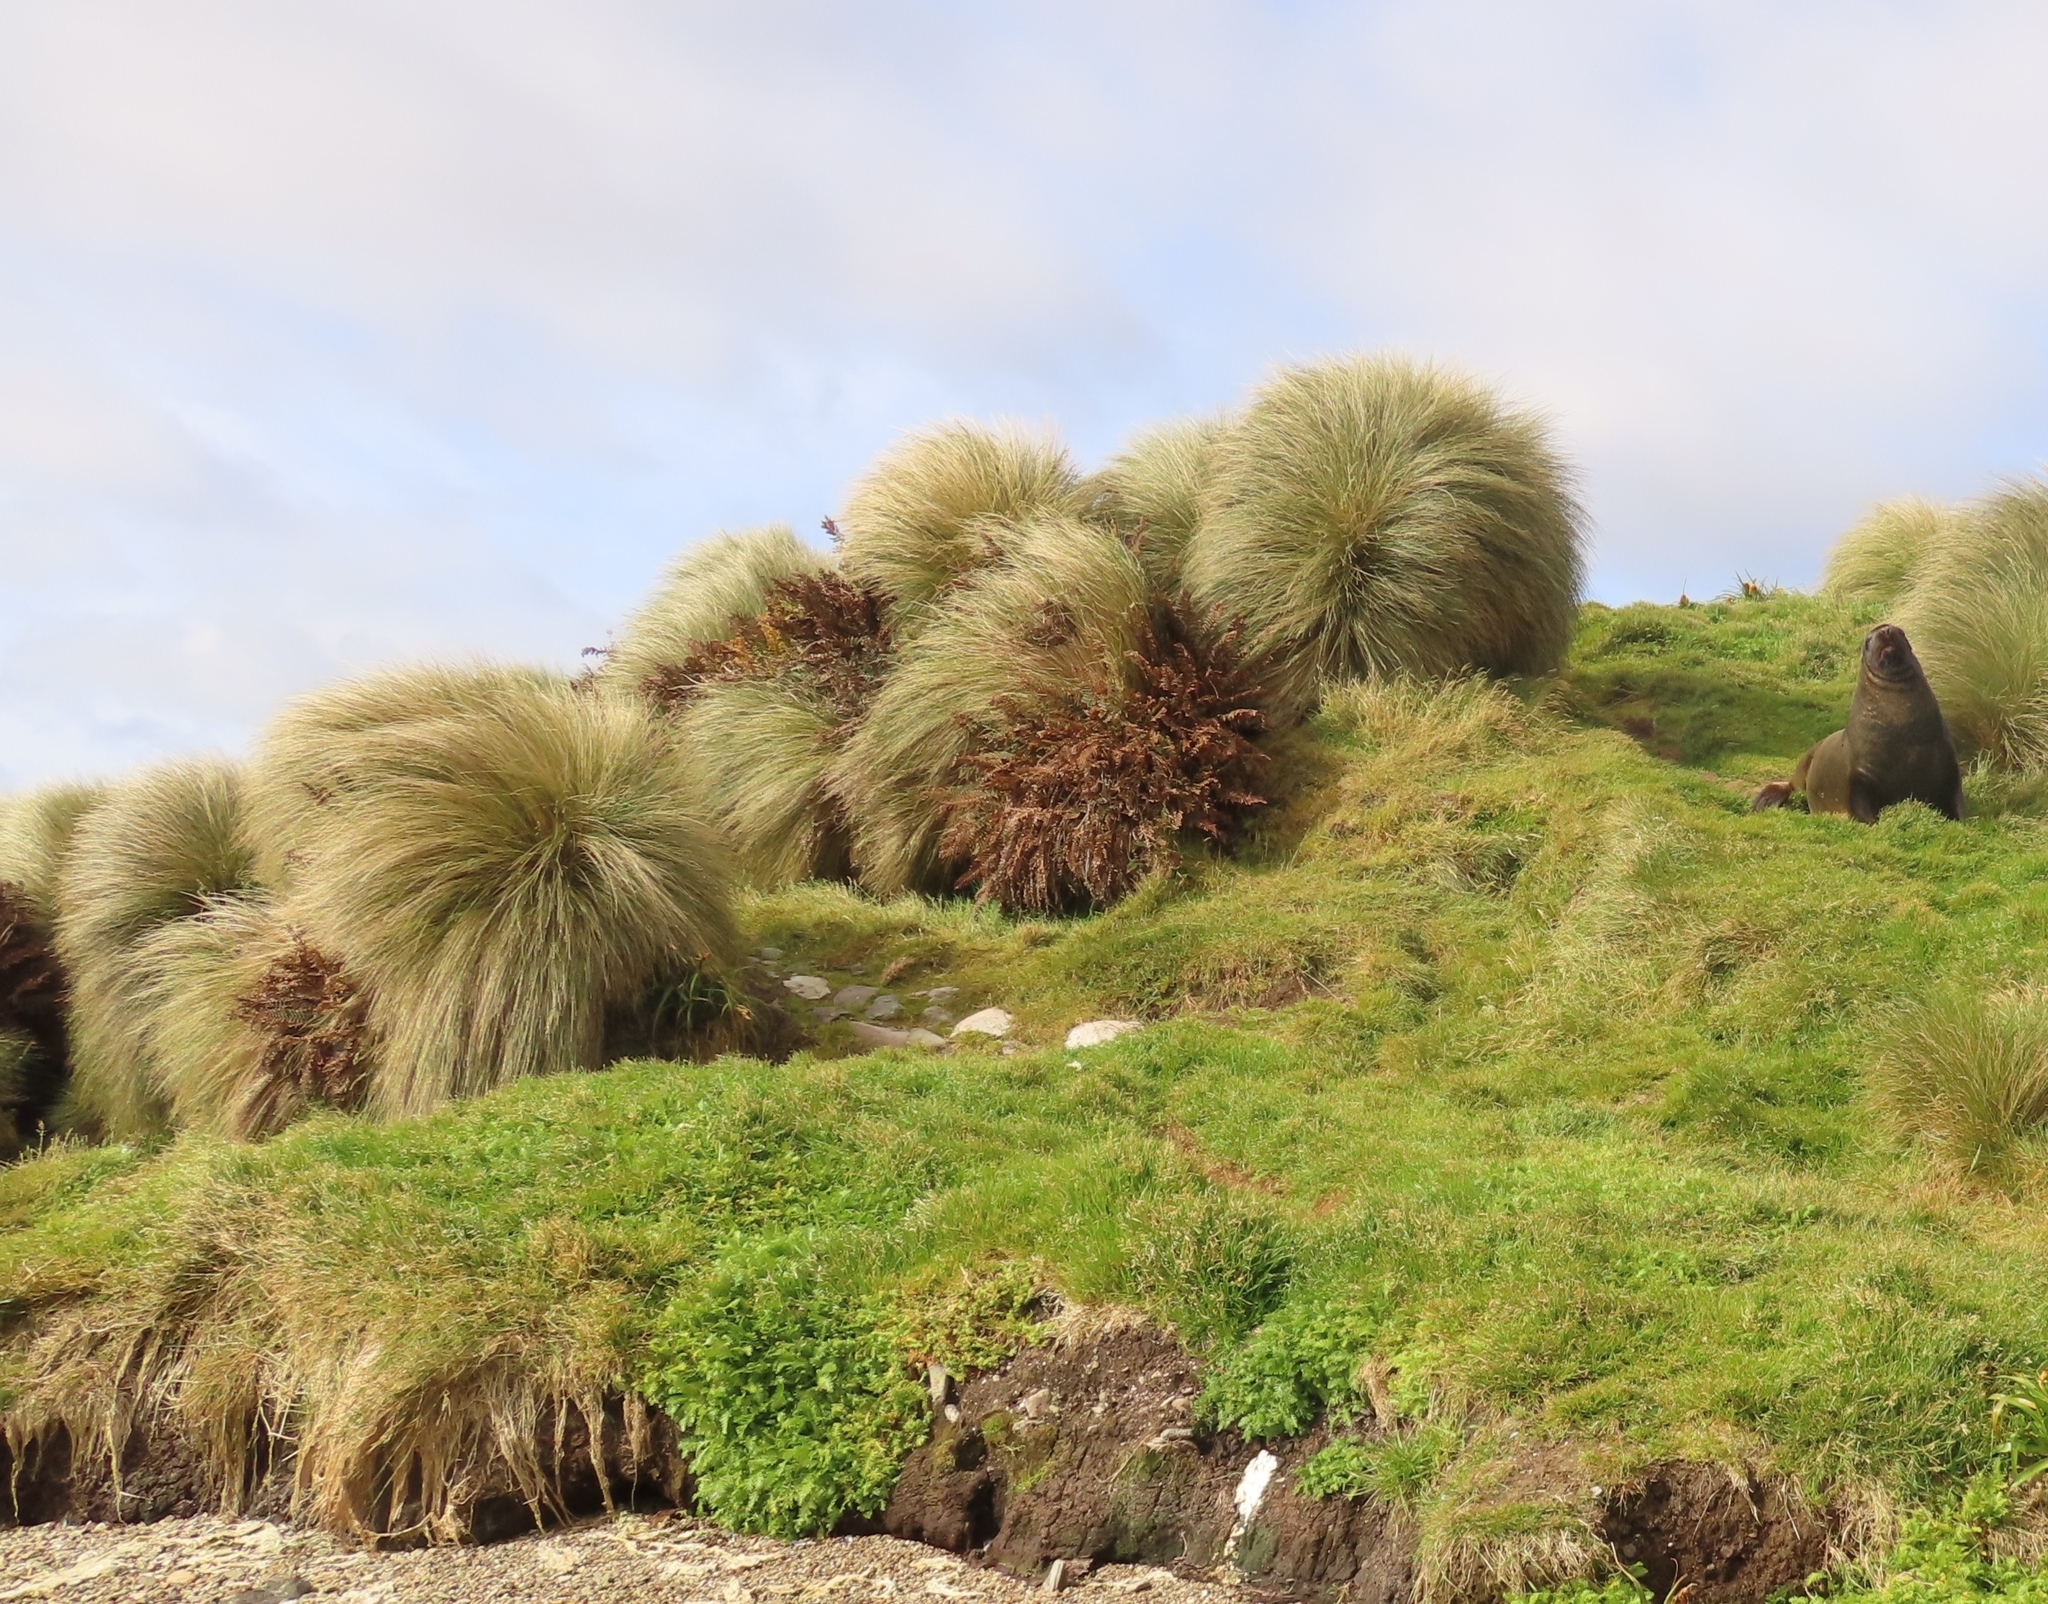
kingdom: Plantae
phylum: Tracheophyta
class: Liliopsida
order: Poales
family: Poaceae
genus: Chionochloa
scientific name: Chionochloa antarctica
